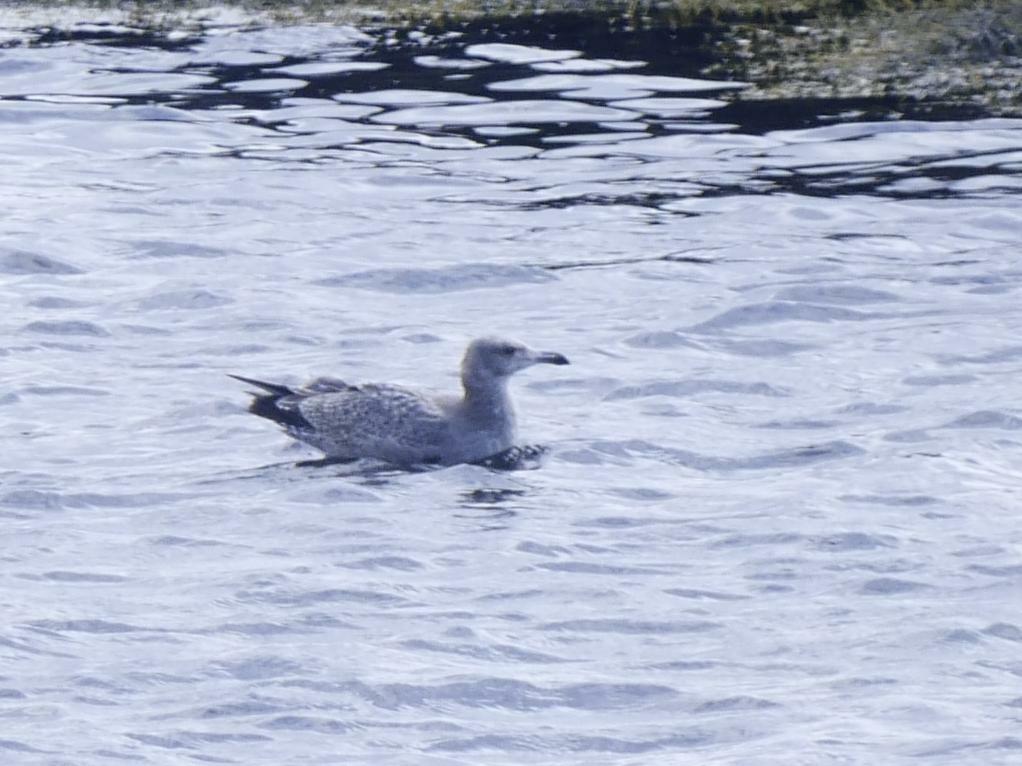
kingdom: Animalia
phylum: Chordata
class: Aves
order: Charadriiformes
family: Laridae
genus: Larus
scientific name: Larus argentatus
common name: Herring gull
